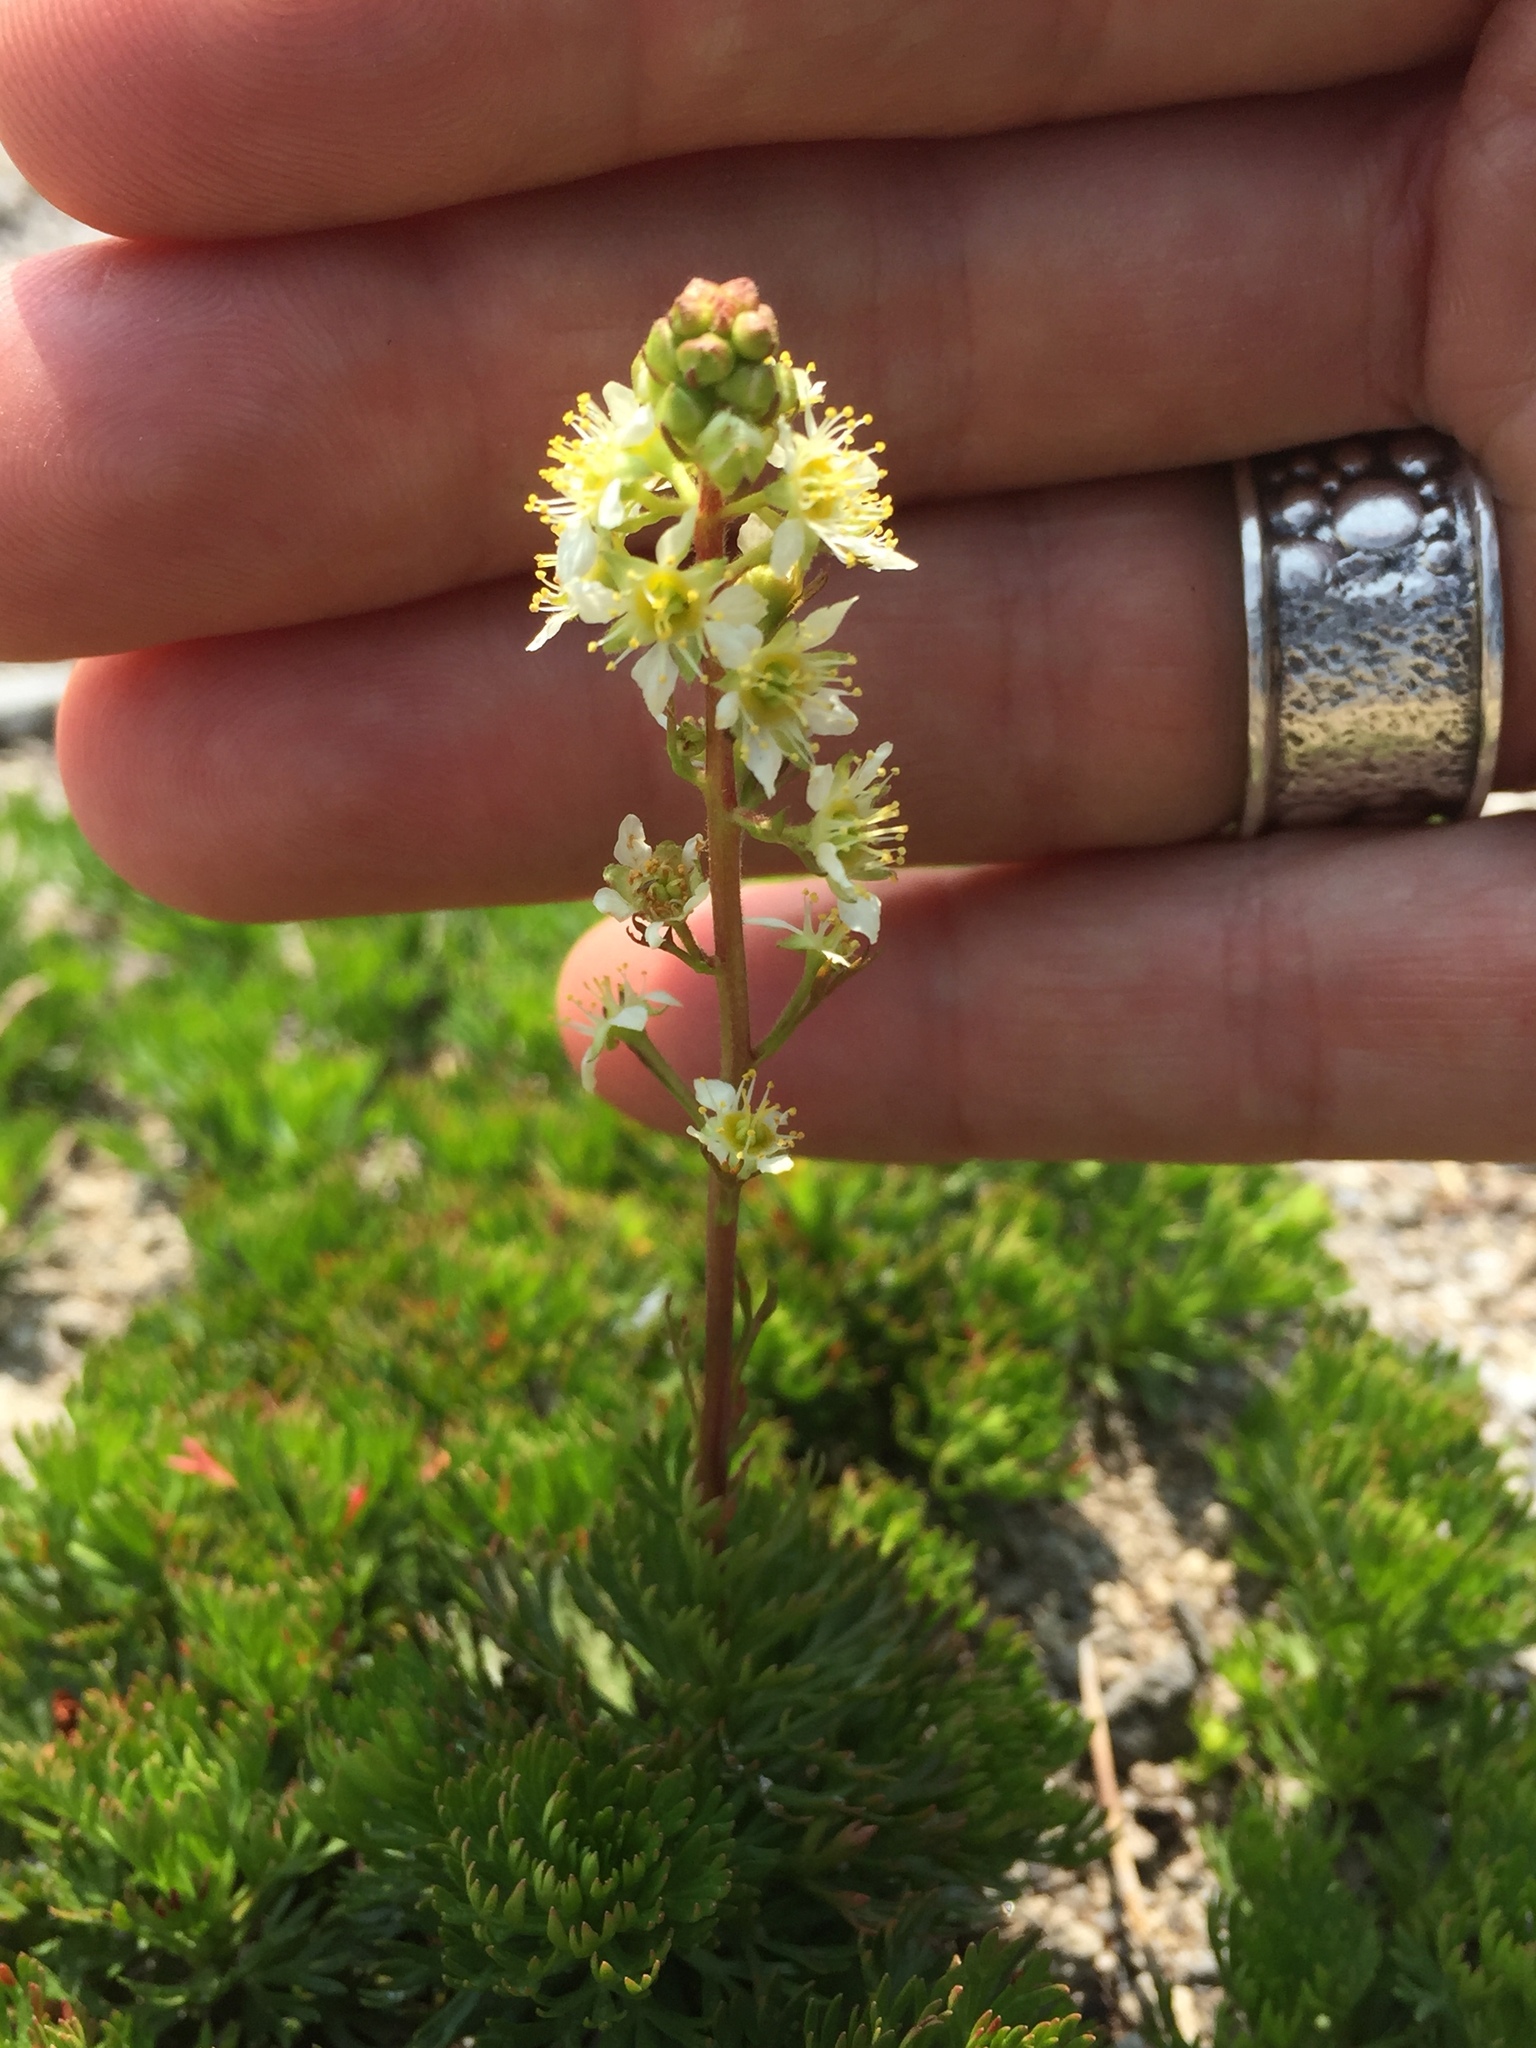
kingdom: Plantae
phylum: Tracheophyta
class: Magnoliopsida
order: Rosales
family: Rosaceae
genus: Luetkea
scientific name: Luetkea pectinata
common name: Partridgefoot
